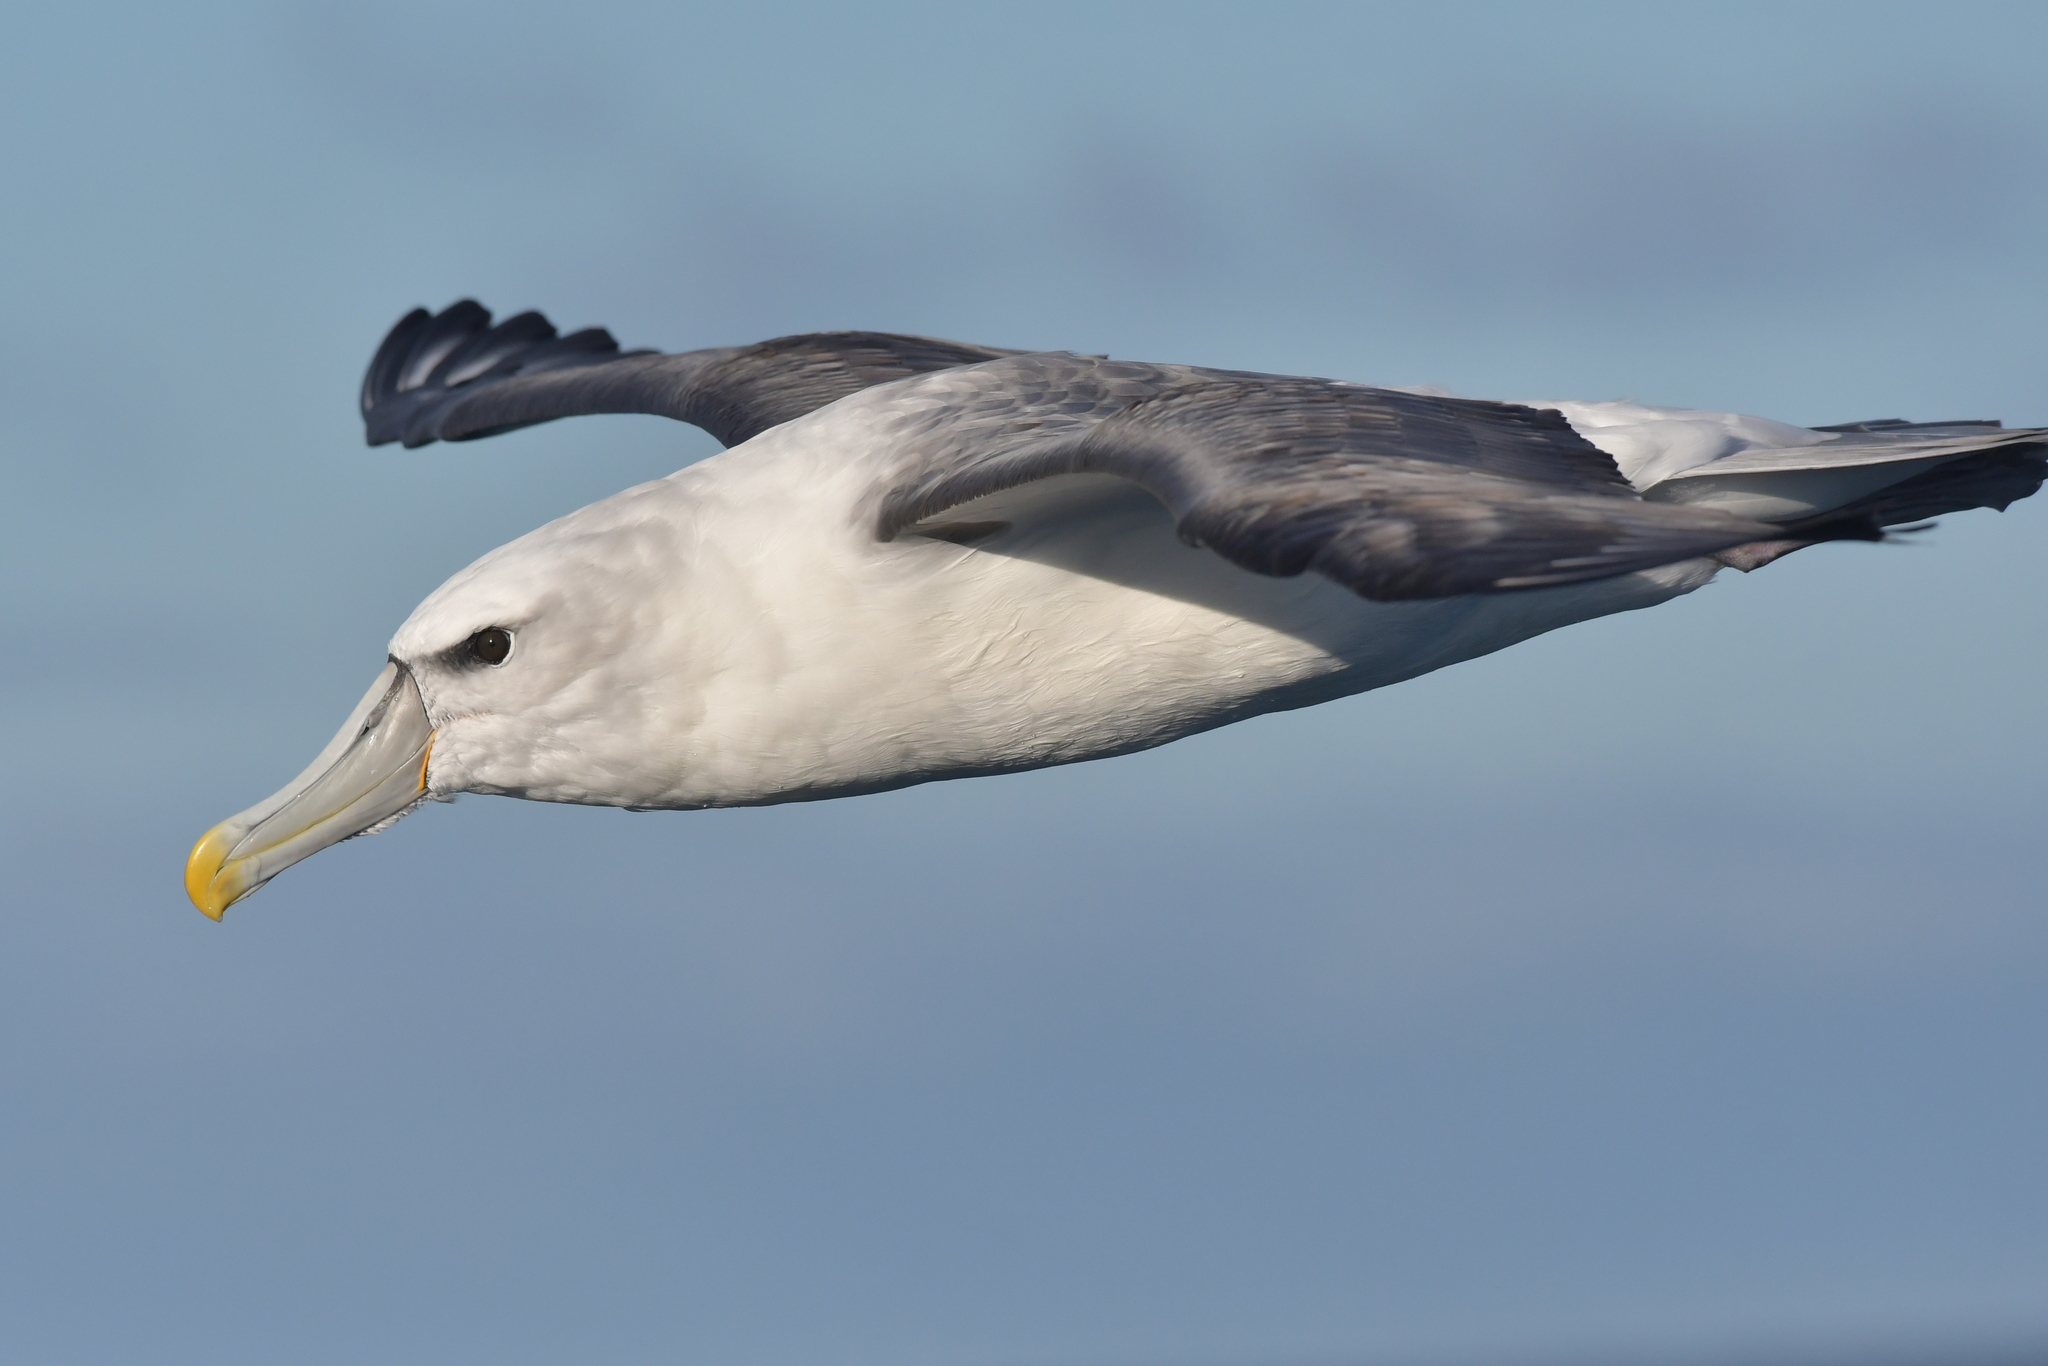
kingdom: Animalia
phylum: Chordata
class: Aves
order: Procellariiformes
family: Diomedeidae
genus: Thalassarche
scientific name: Thalassarche cauta
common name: Shy albatross
